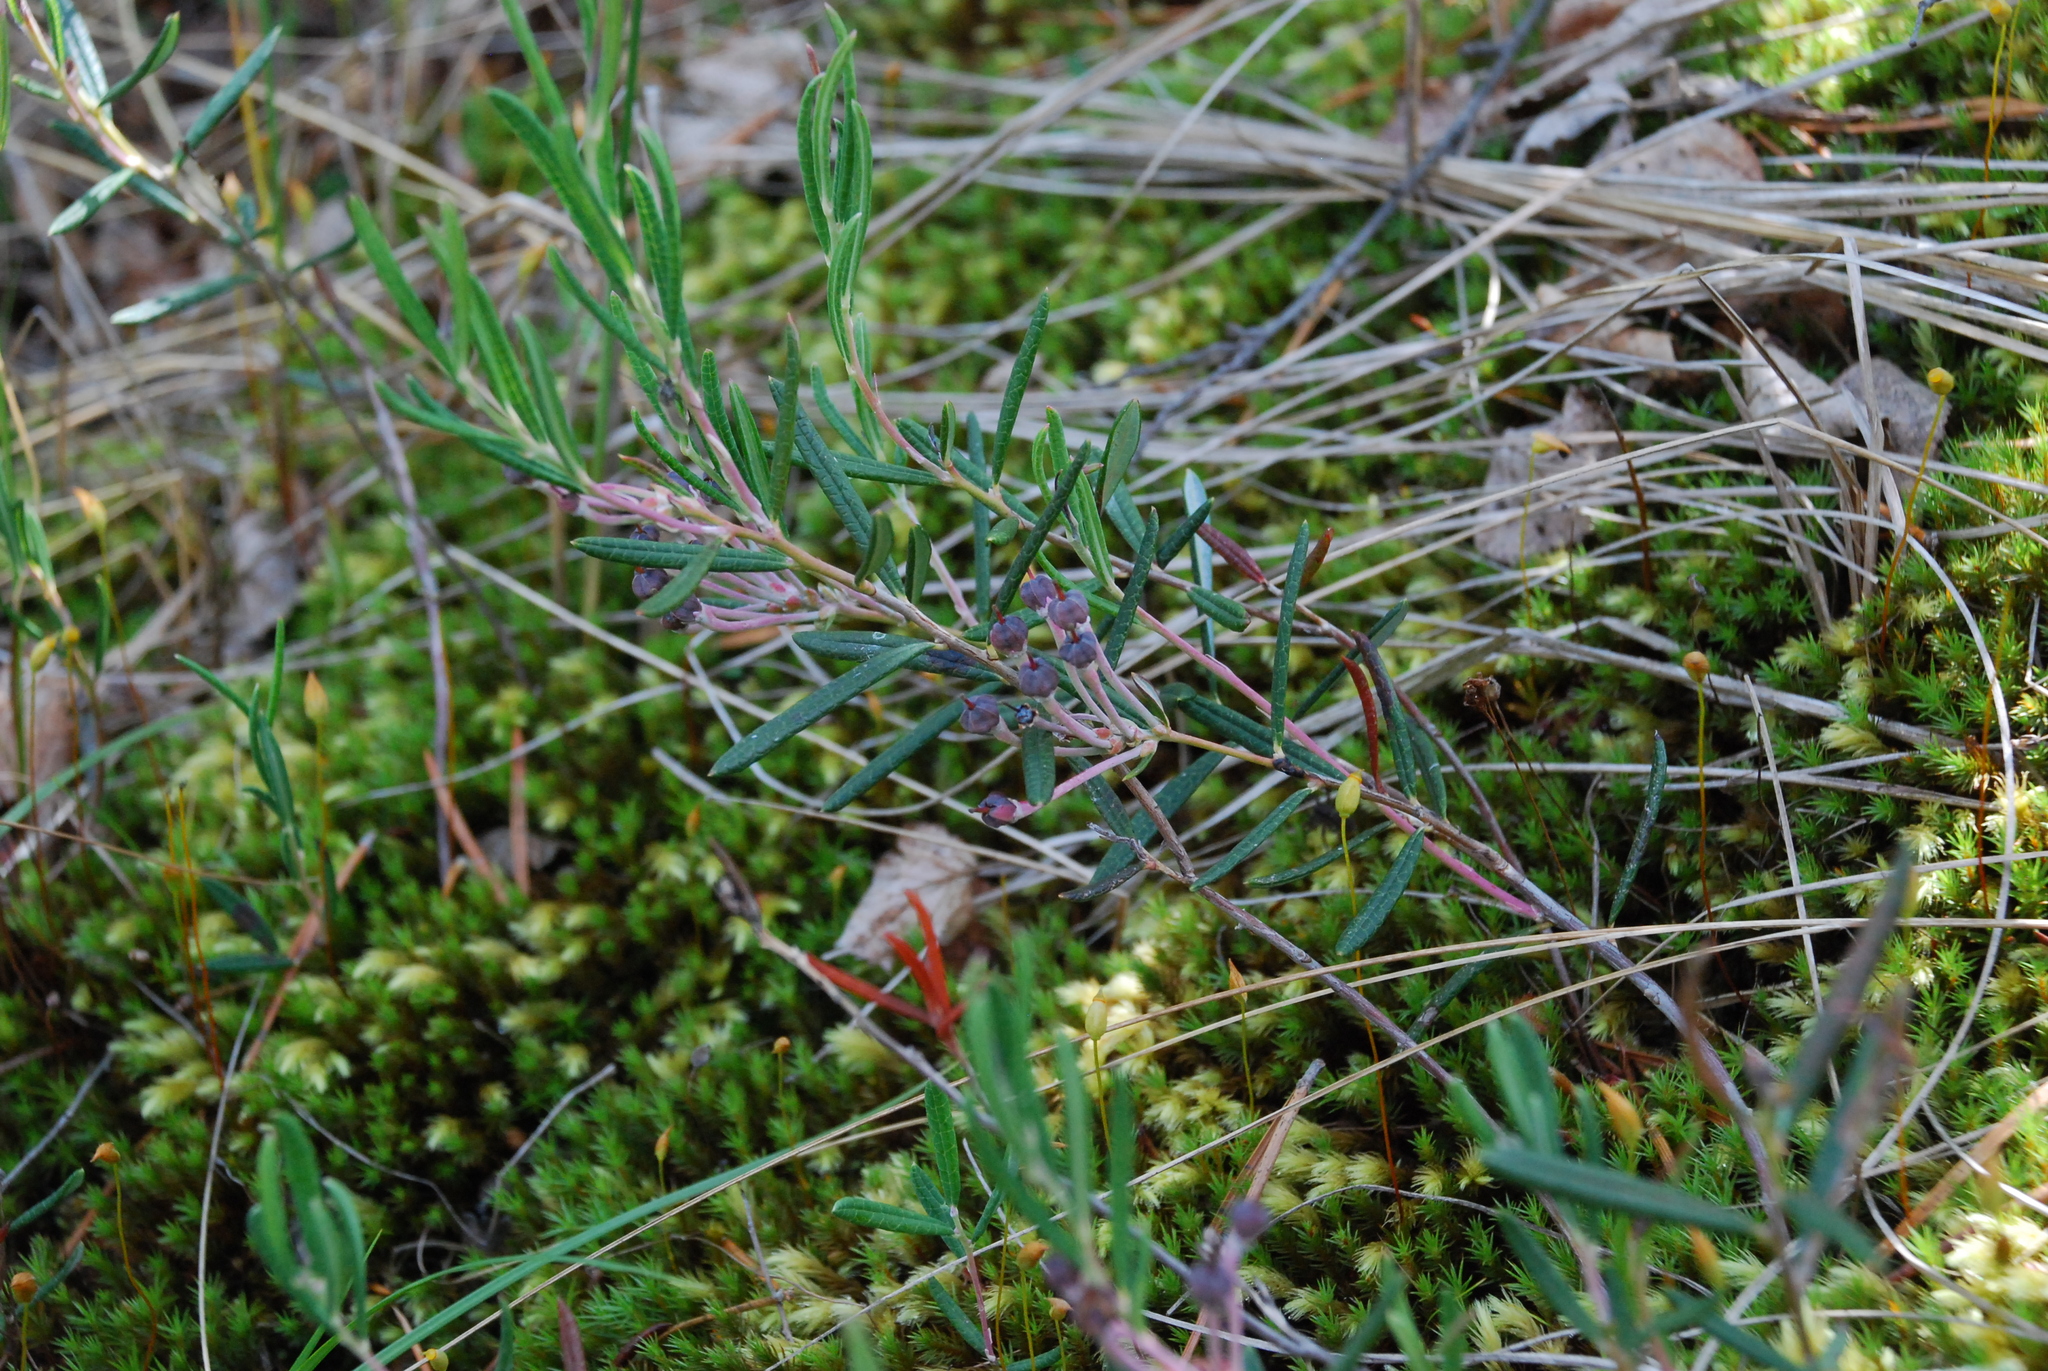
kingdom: Plantae
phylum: Tracheophyta
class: Magnoliopsida
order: Ericales
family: Ericaceae
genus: Andromeda
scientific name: Andromeda polifolia
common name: Bog-rosemary
